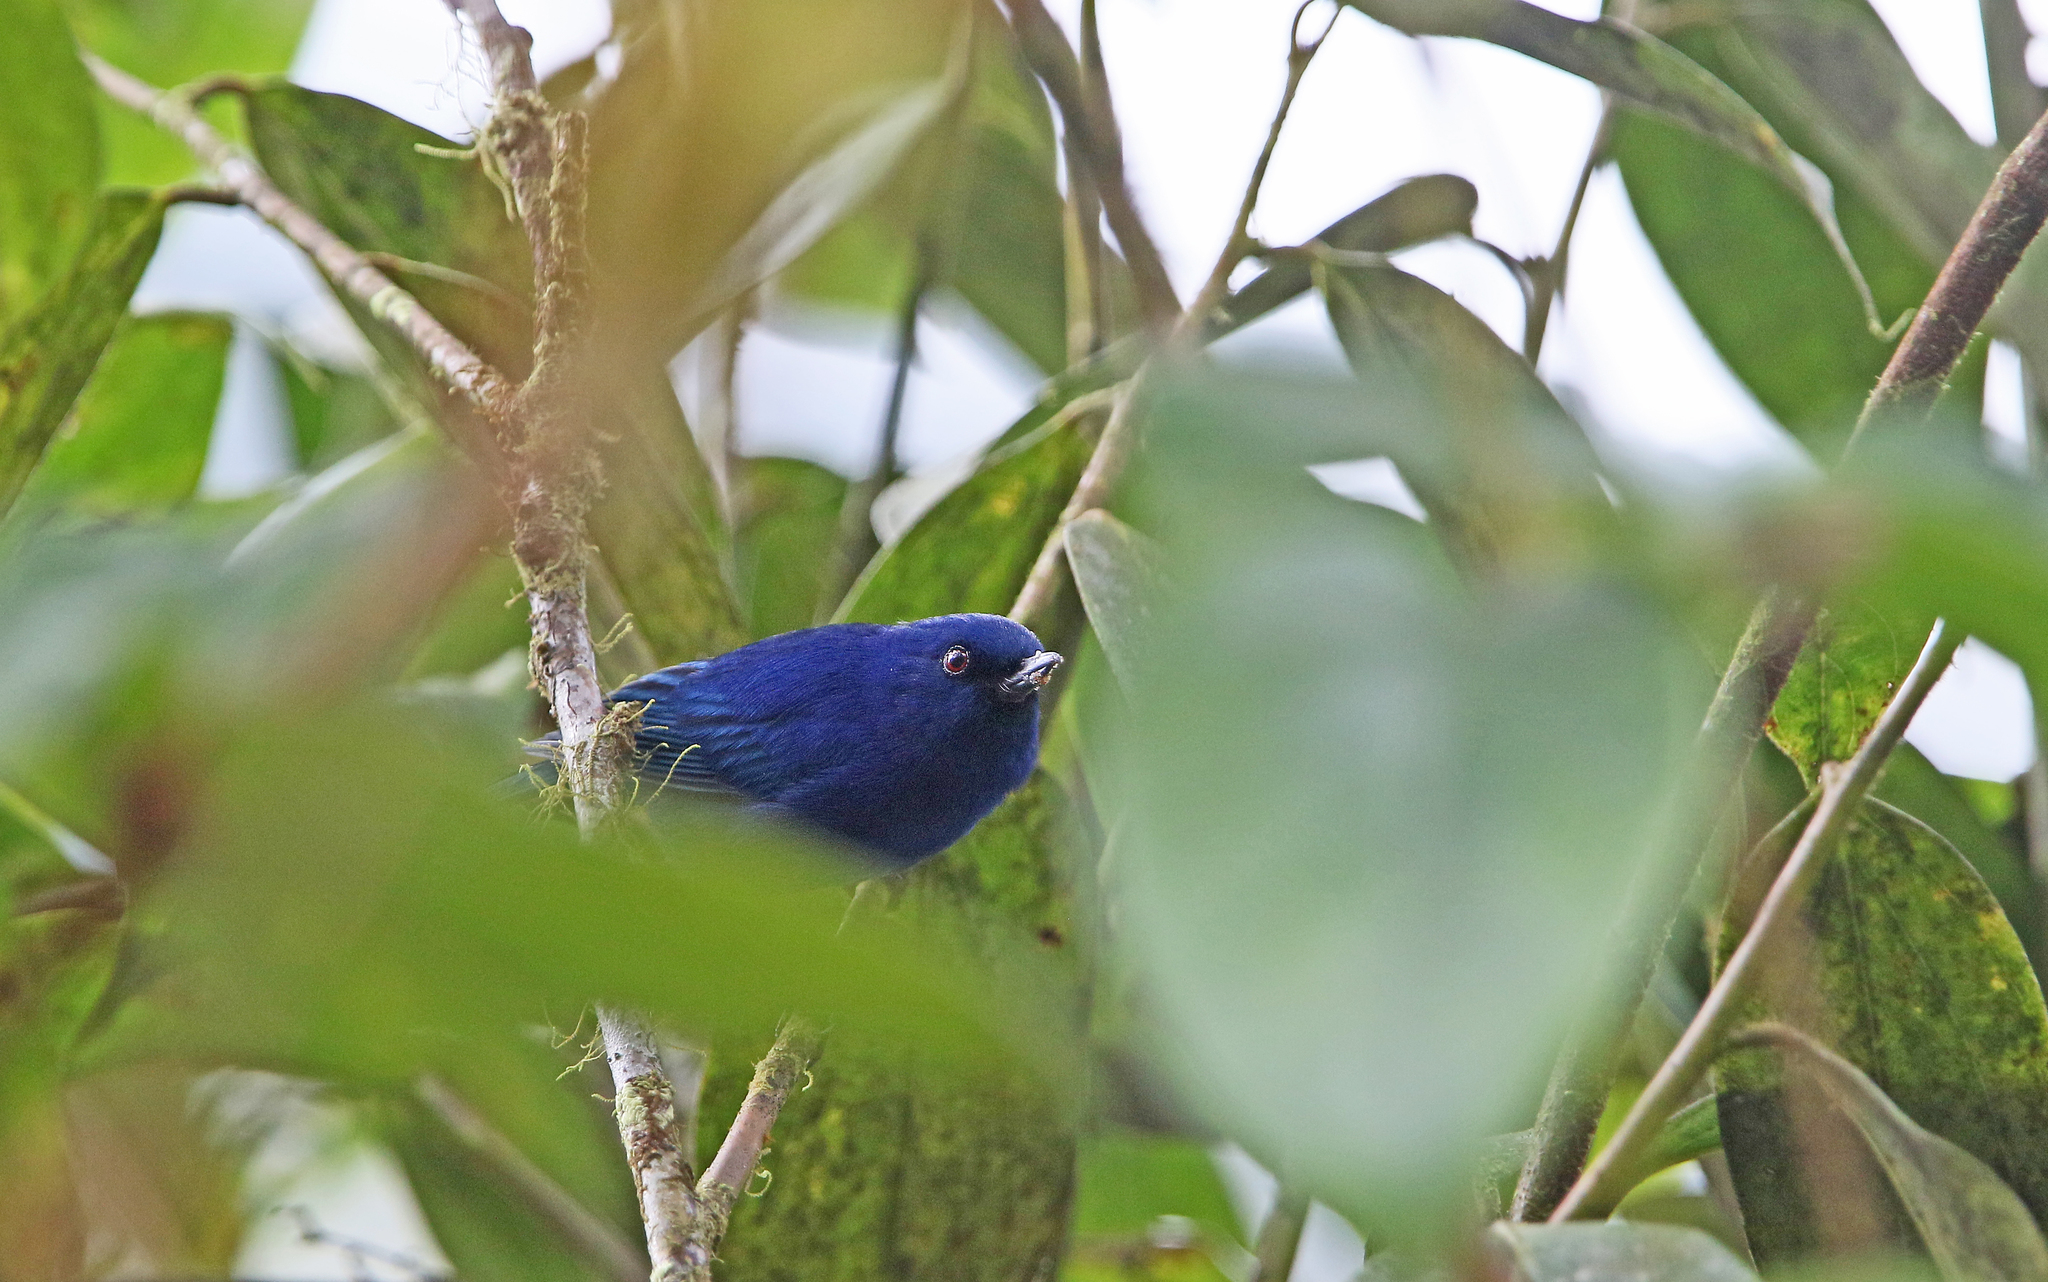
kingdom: Animalia
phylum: Chordata
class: Aves
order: Passeriformes
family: Thraupidae
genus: Diglossa
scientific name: Diglossa indigotica
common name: Indigo flowerpiercer
